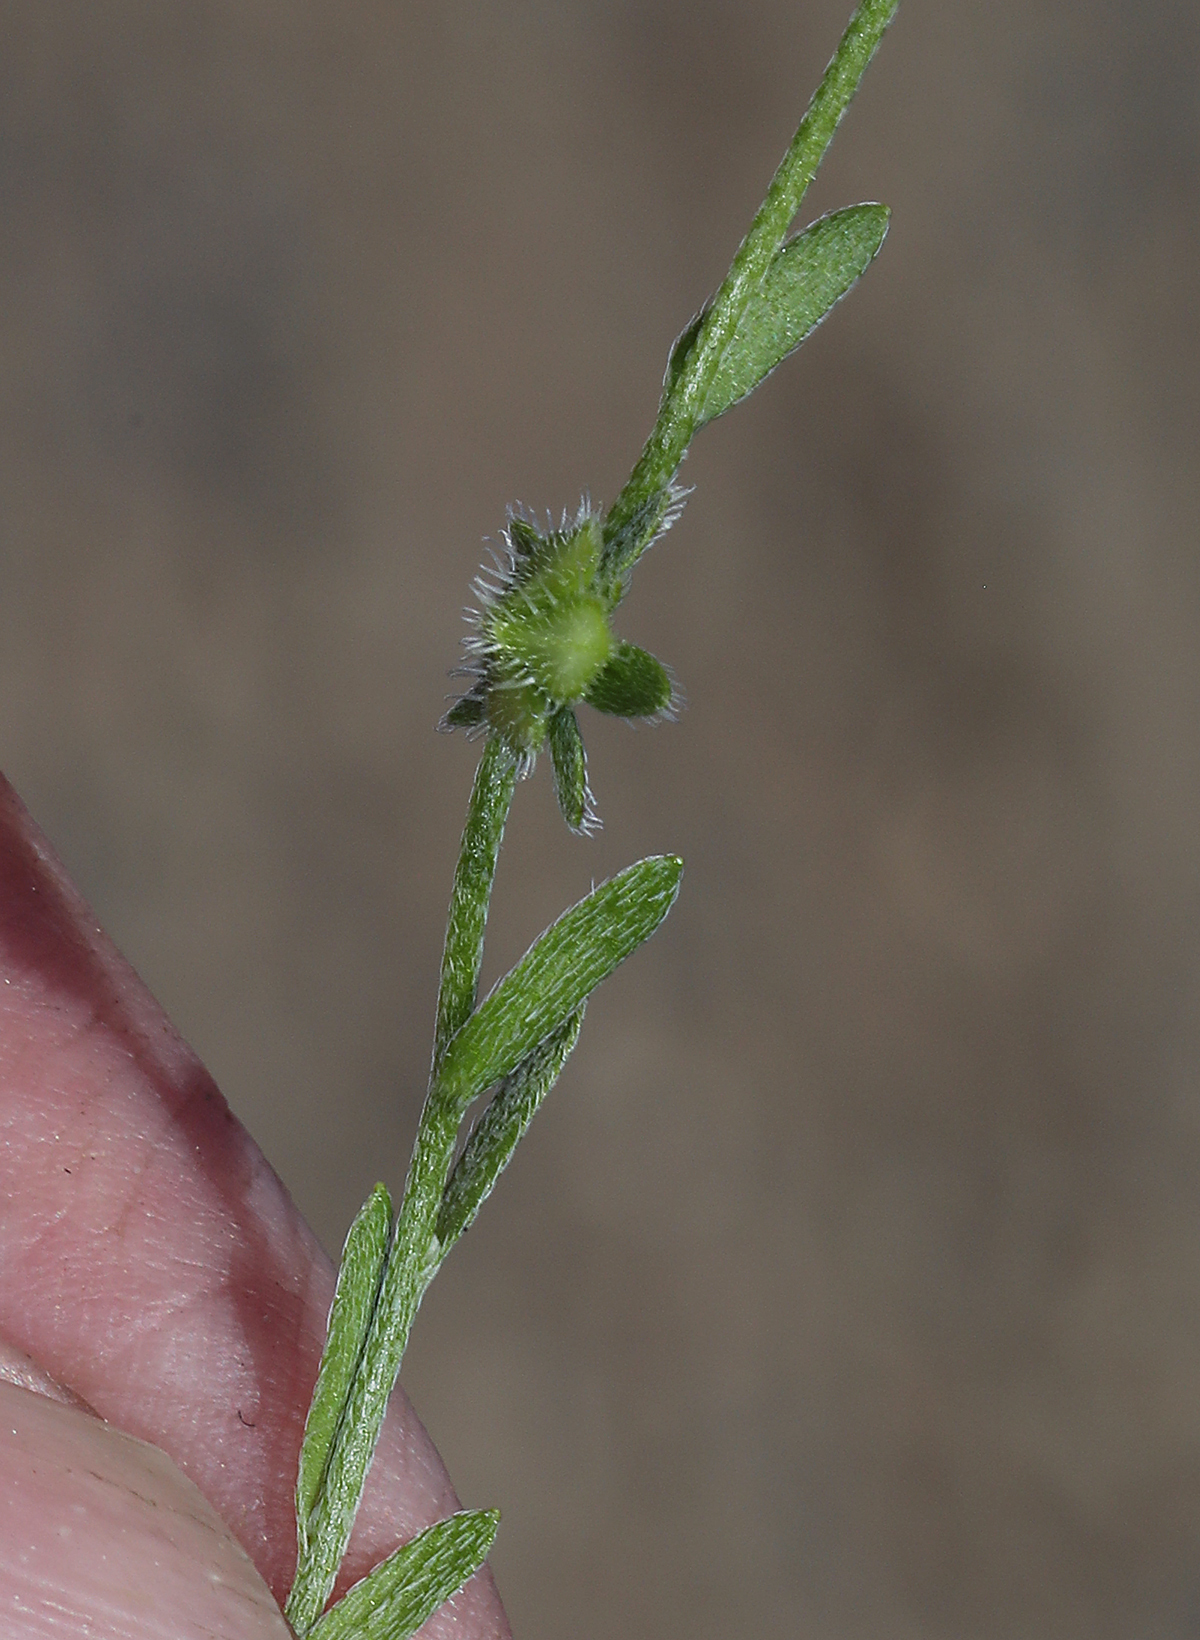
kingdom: Plantae
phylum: Tracheophyta
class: Magnoliopsida
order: Boraginales
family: Boraginaceae
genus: Pectocarya
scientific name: Pectocarya pusilla
